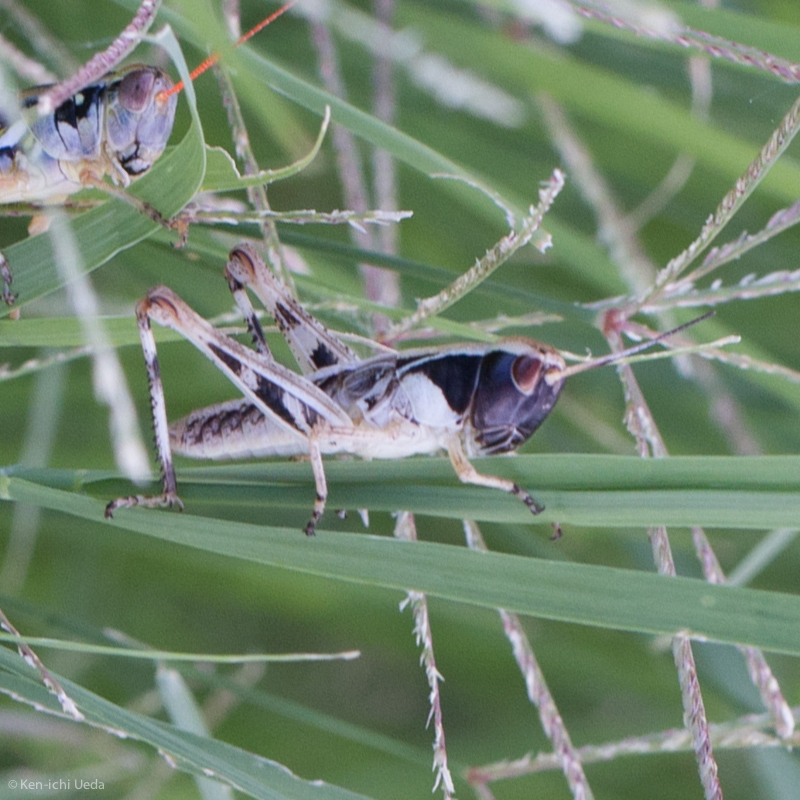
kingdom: Animalia
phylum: Arthropoda
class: Insecta
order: Orthoptera
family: Acrididae
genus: Boopedon
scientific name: Boopedon flaviventris
